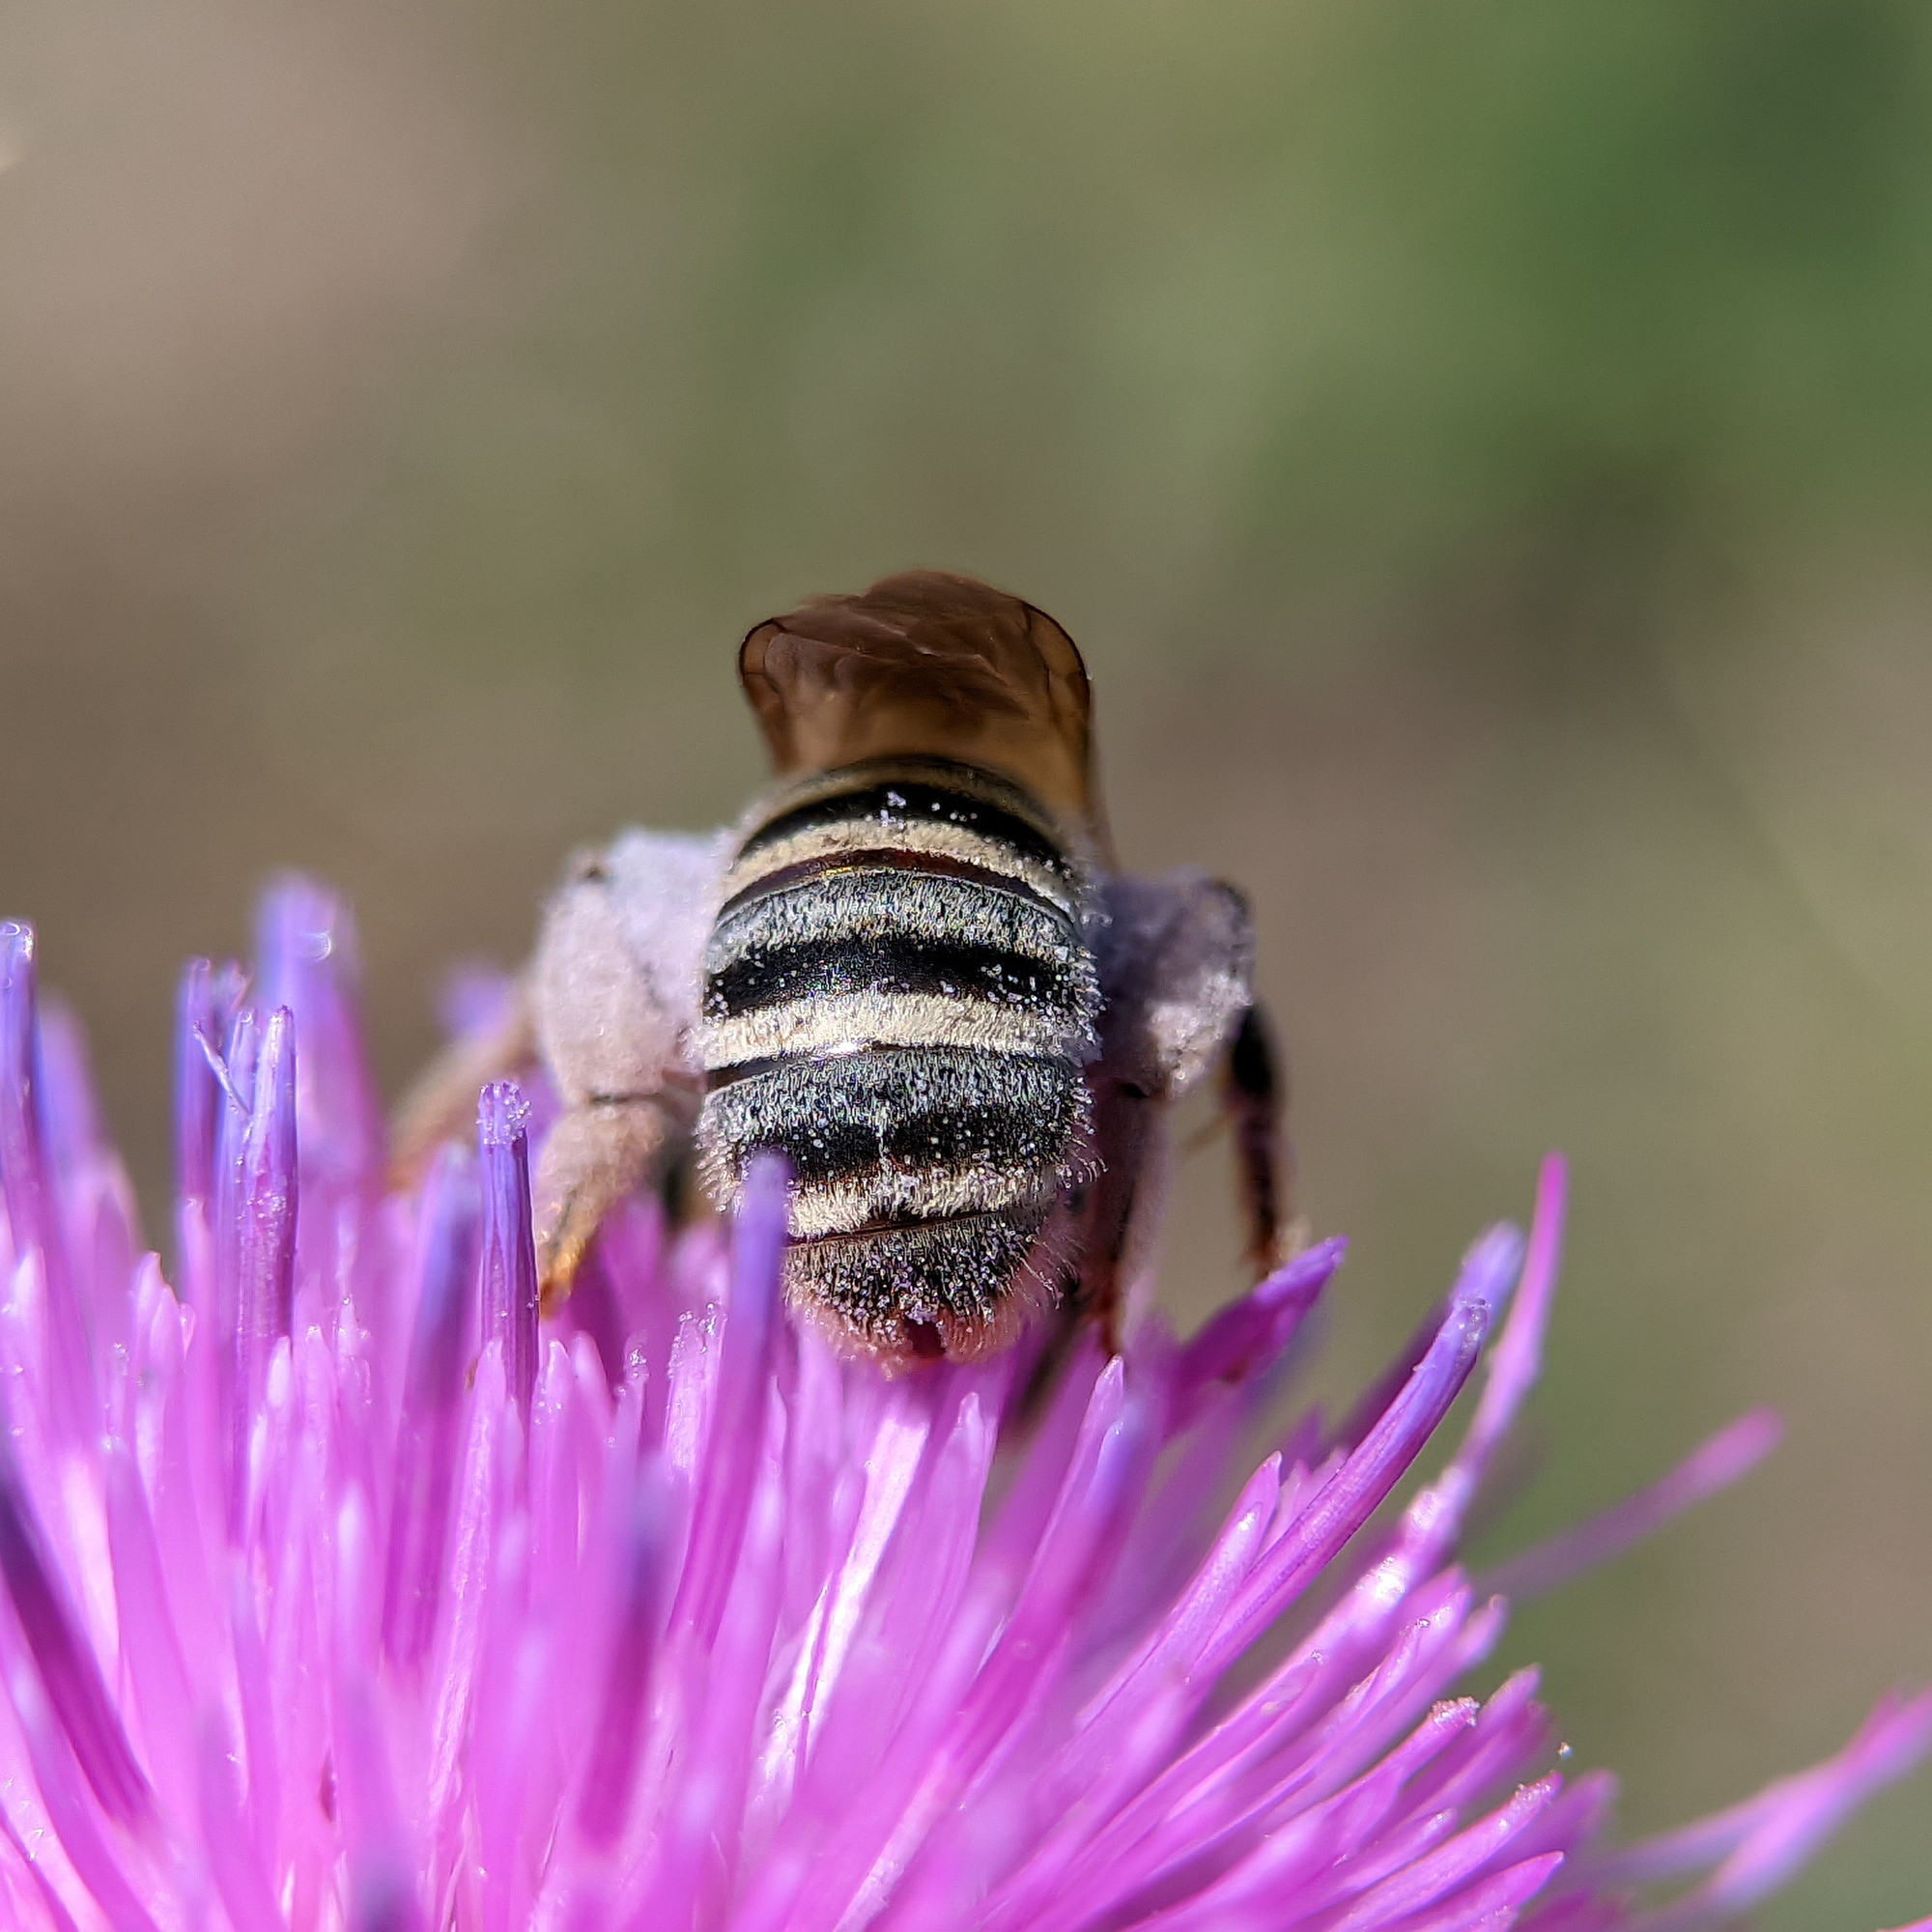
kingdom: Animalia
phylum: Arthropoda
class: Insecta
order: Hymenoptera
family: Halictidae
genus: Halictus
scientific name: Halictus scabiosae
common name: Great banded furrow bee
